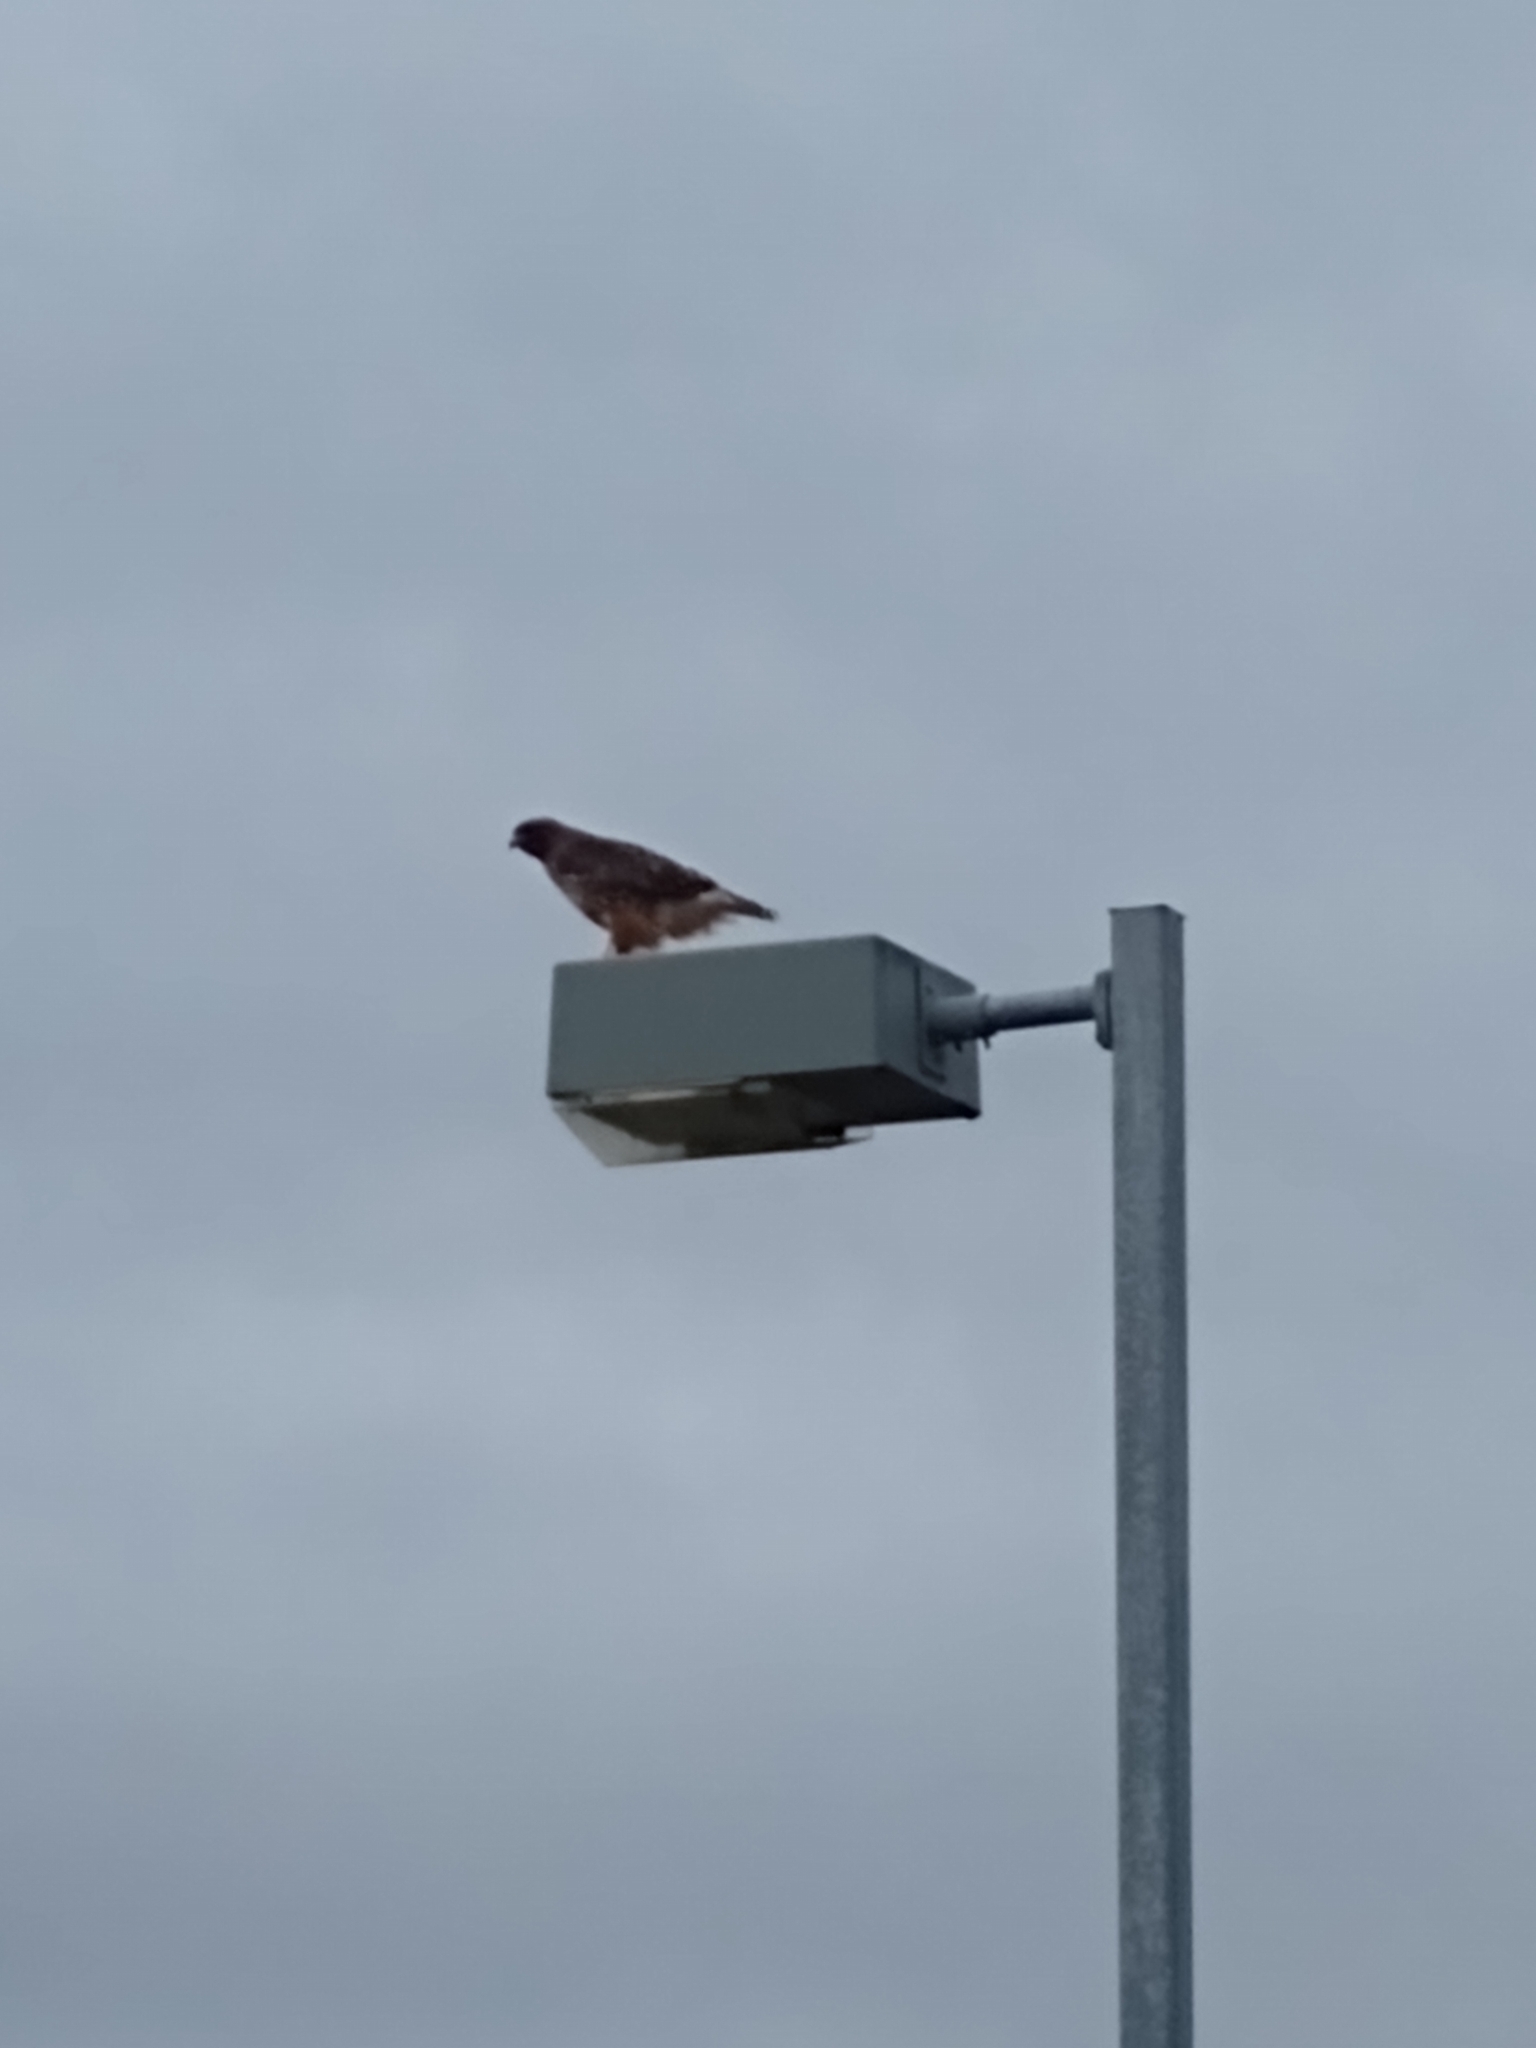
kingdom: Animalia
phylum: Chordata
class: Aves
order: Accipitriformes
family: Accipitridae
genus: Buteo
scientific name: Buteo jamaicensis
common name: Red-tailed hawk
